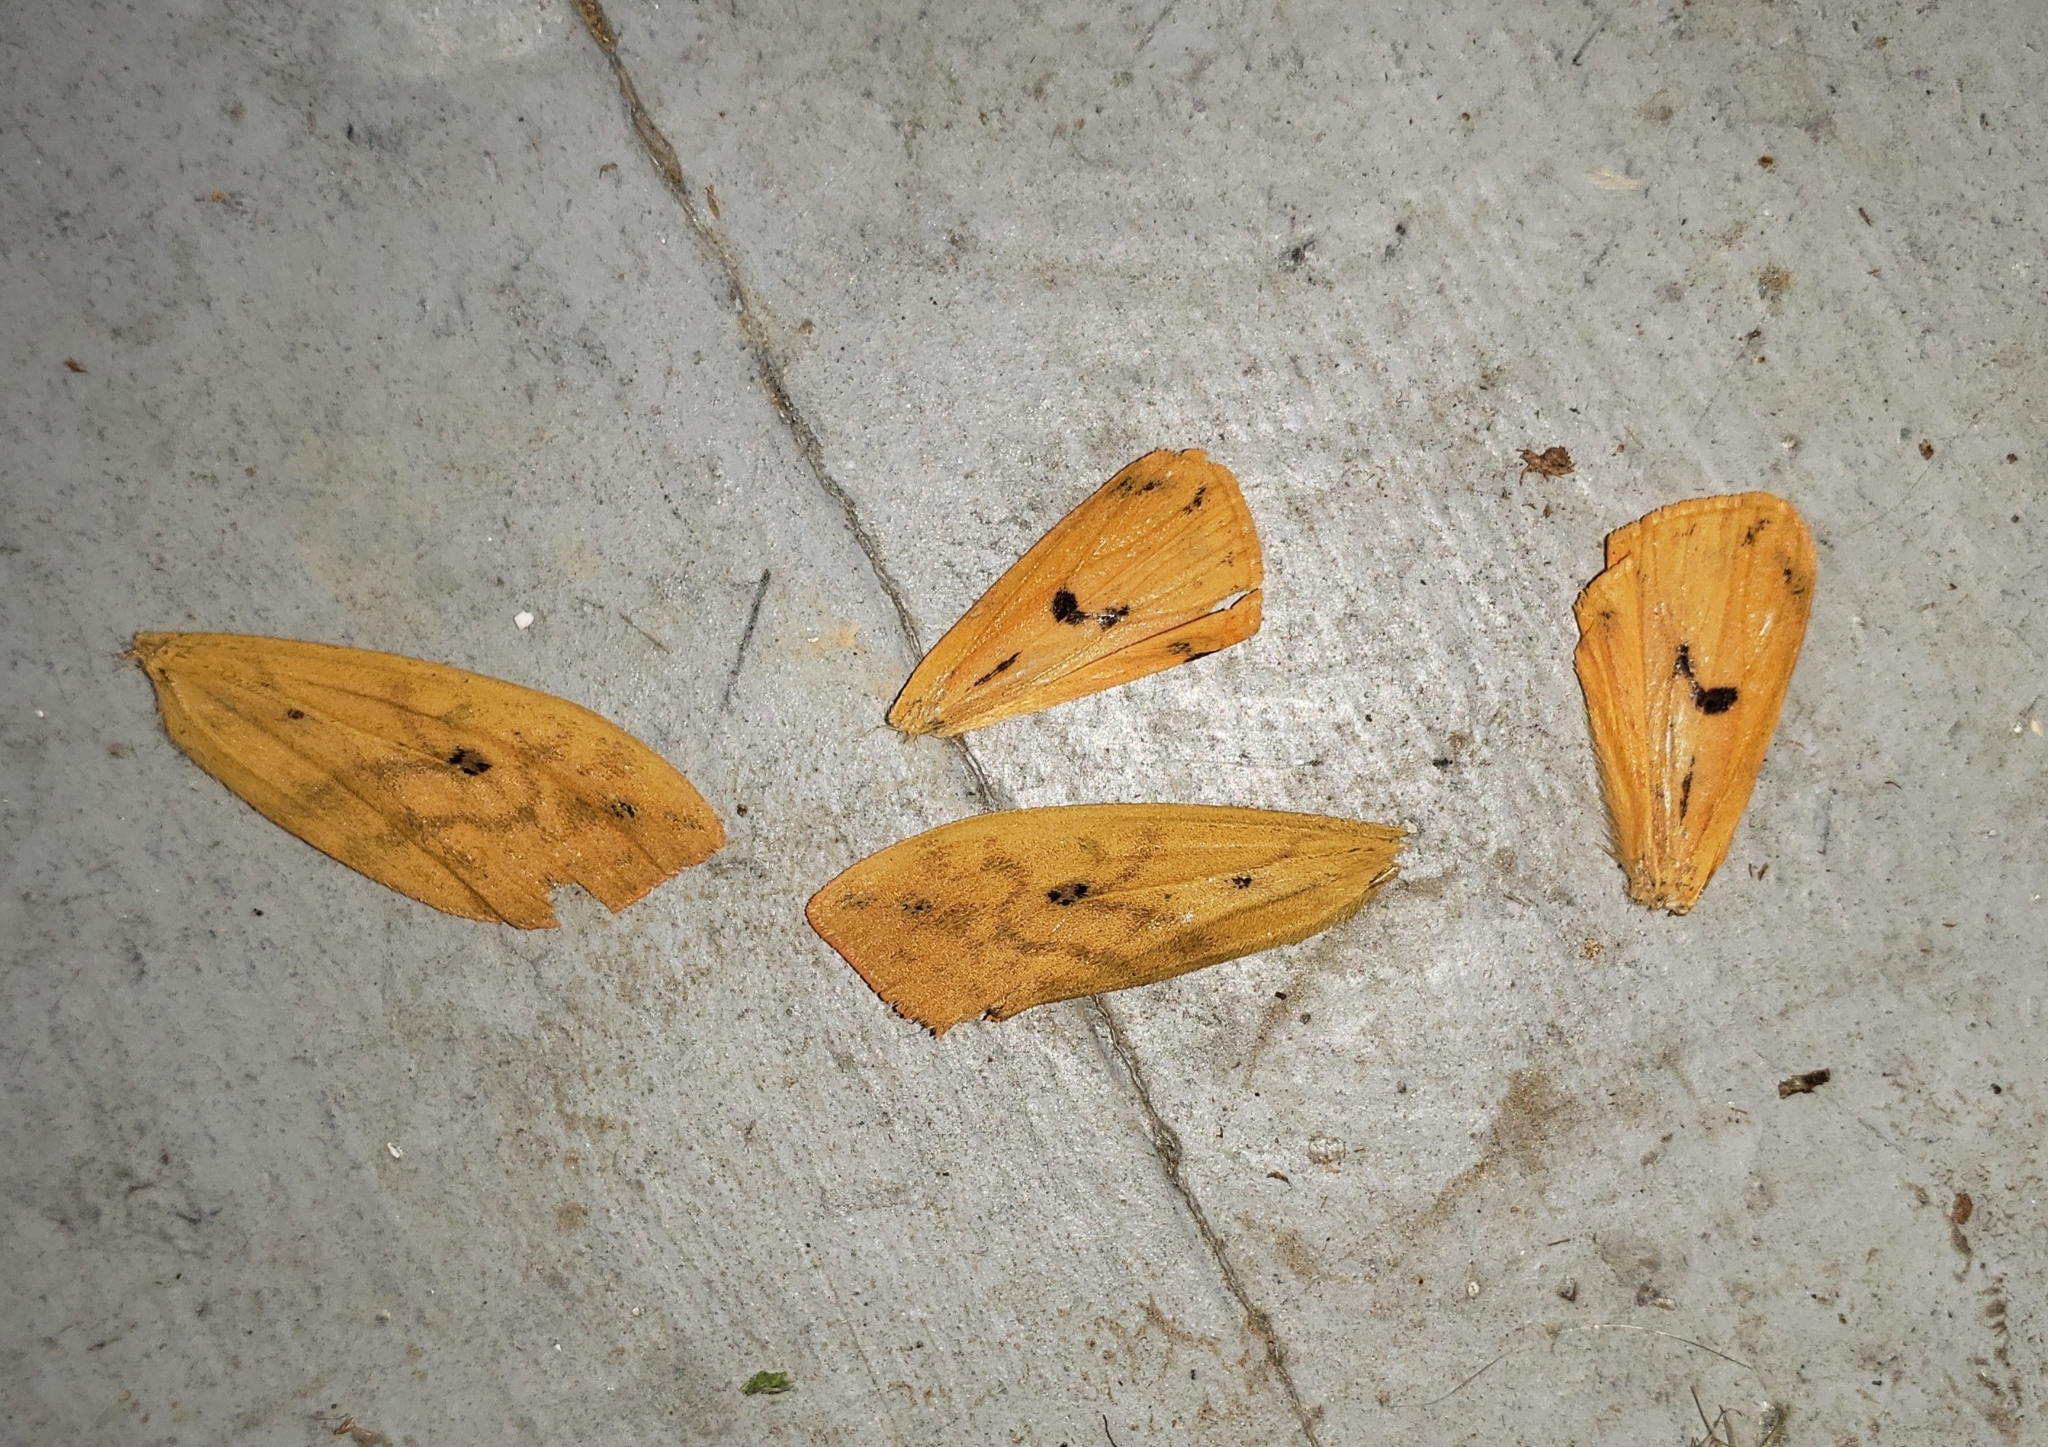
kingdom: Animalia
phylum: Arthropoda
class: Insecta
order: Lepidoptera
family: Erebidae
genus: Pyrrharctia
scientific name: Pyrrharctia isabella
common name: Isabella tiger moth
